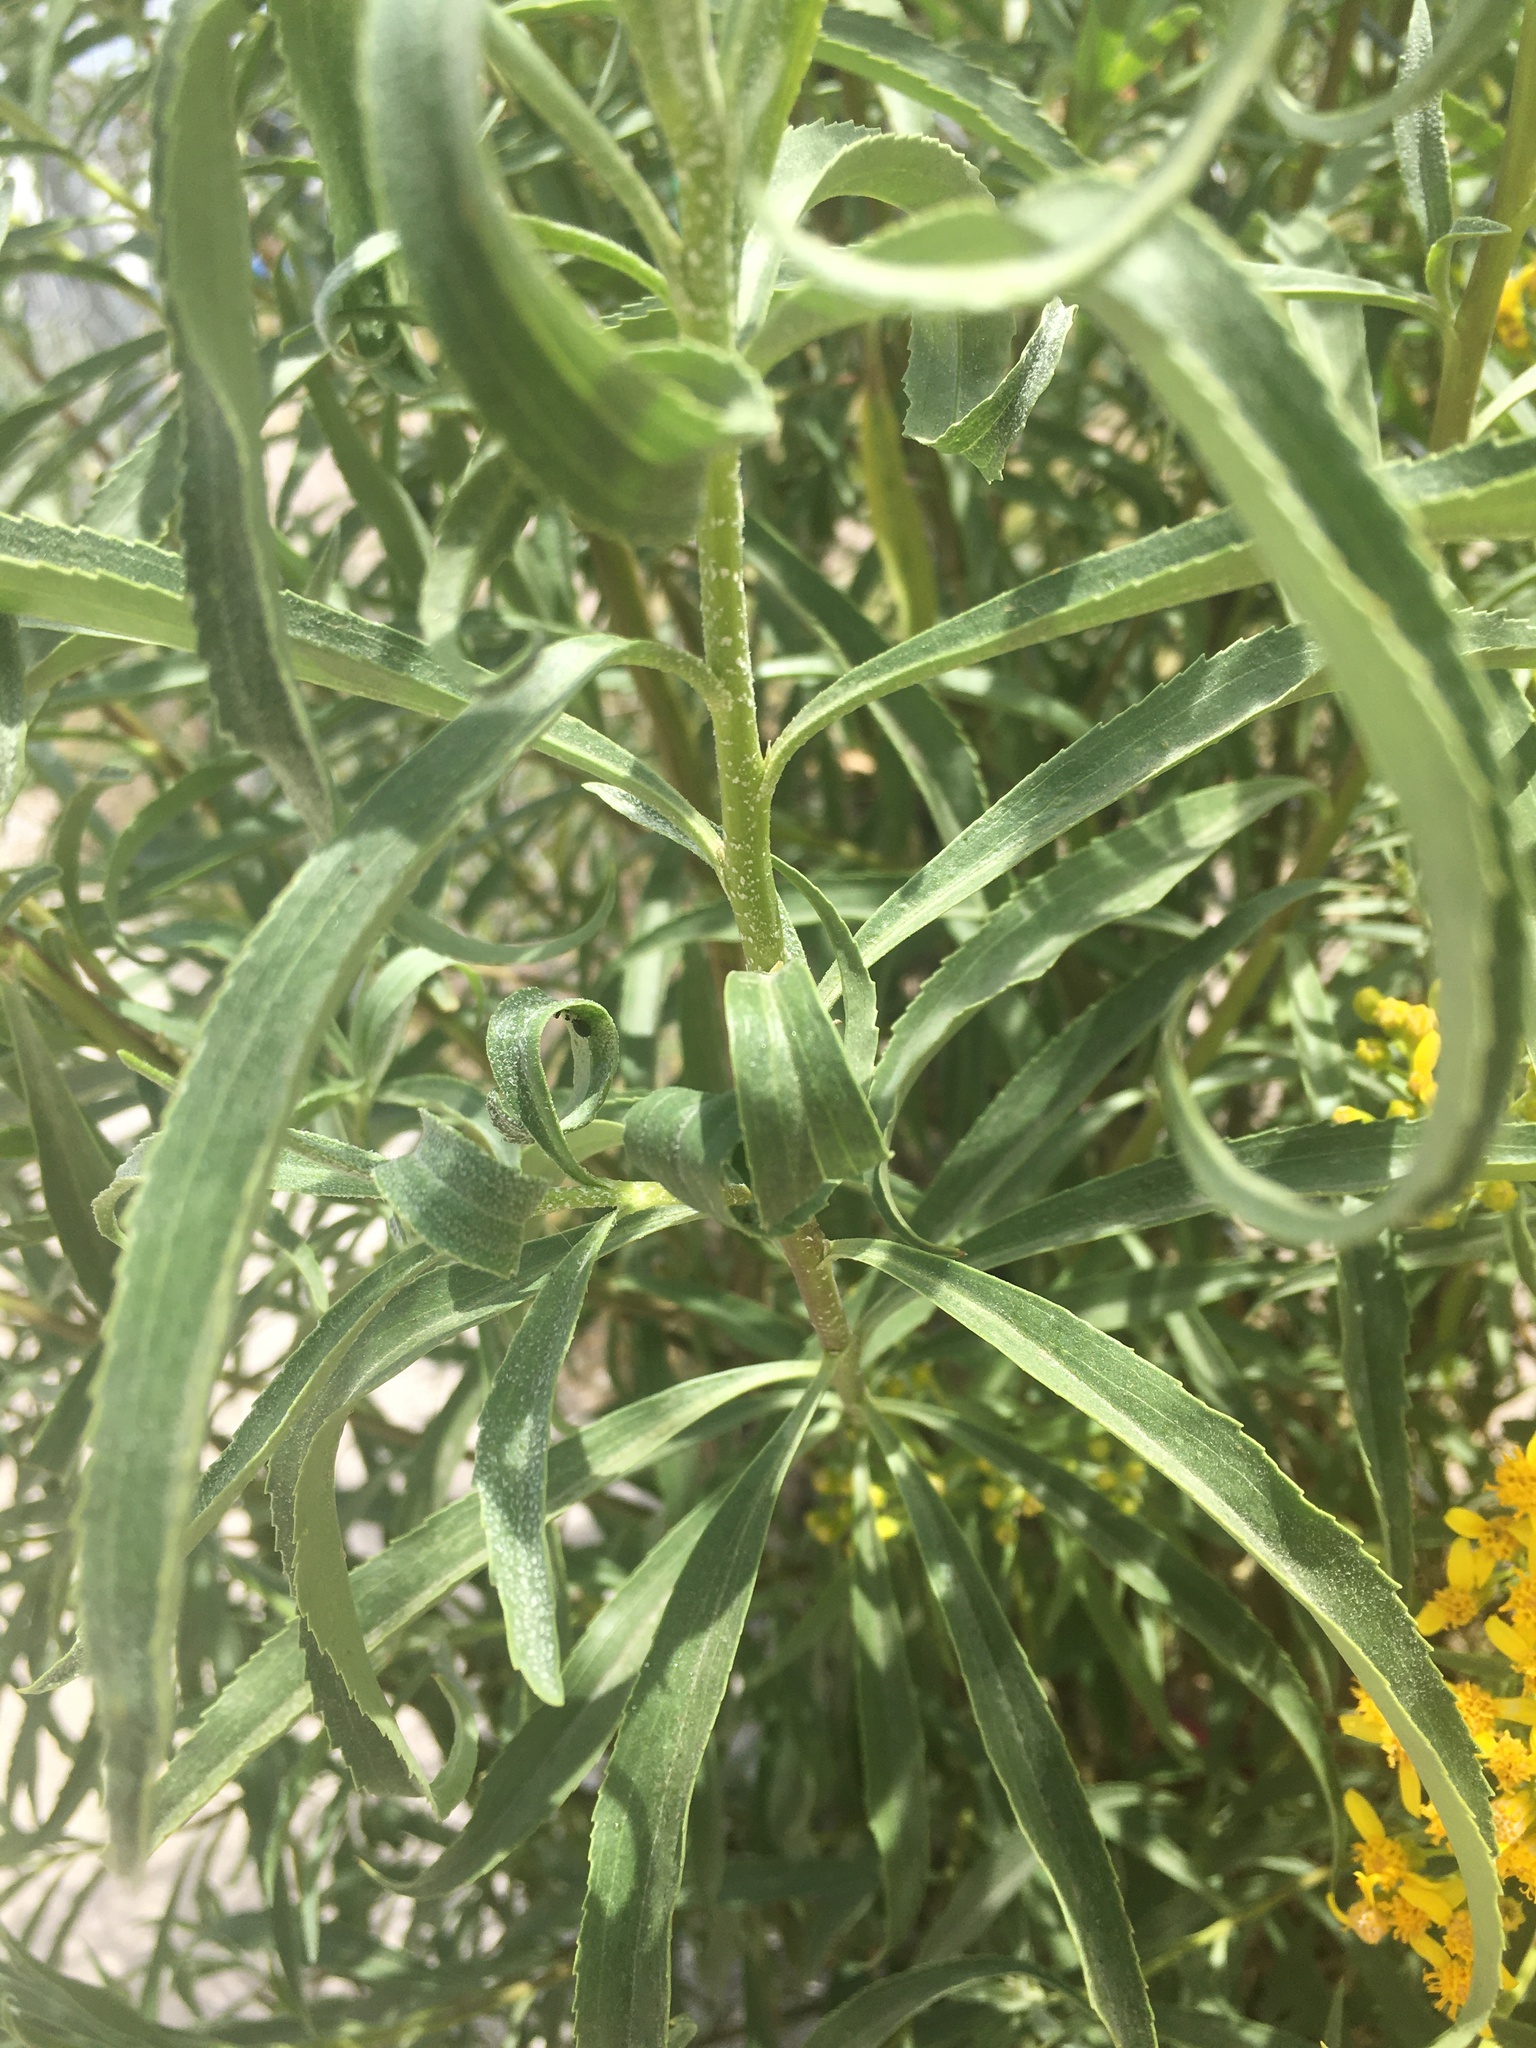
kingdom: Plantae
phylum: Tracheophyta
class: Magnoliopsida
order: Asterales
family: Asteraceae
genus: Barkleyanthus
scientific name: Barkleyanthus salicifolius
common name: Willow ragwort
